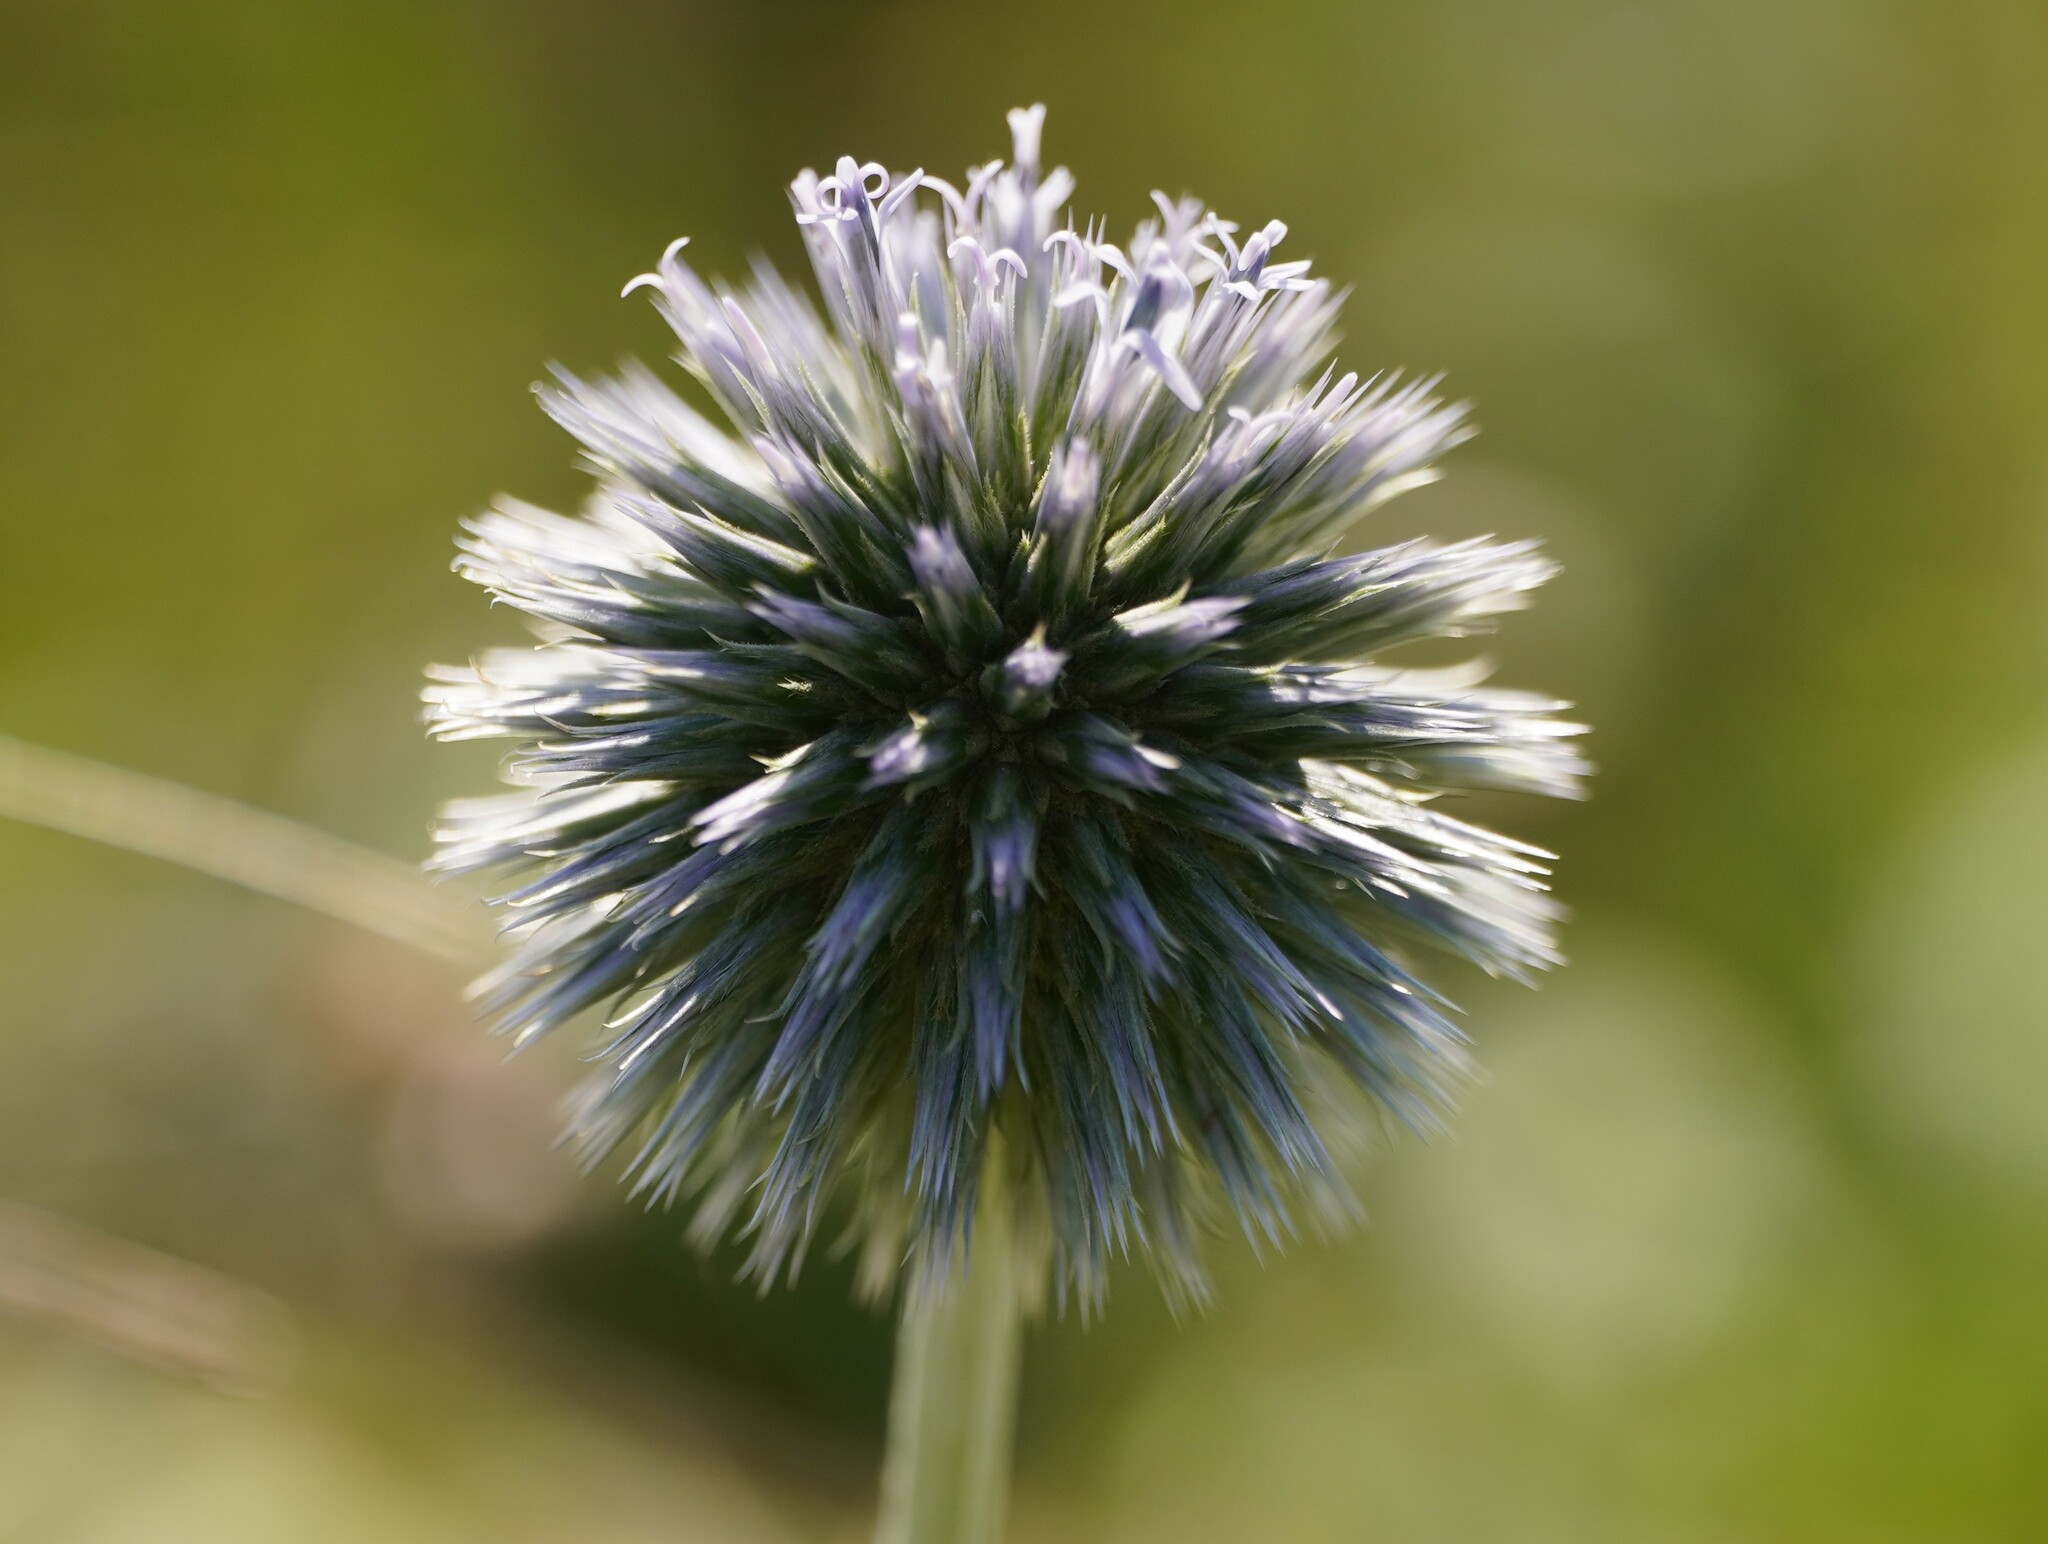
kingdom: Plantae
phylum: Tracheophyta
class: Magnoliopsida
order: Asterales
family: Asteraceae
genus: Echinops
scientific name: Echinops sphaerocephalus
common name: Glandular globe-thistle
